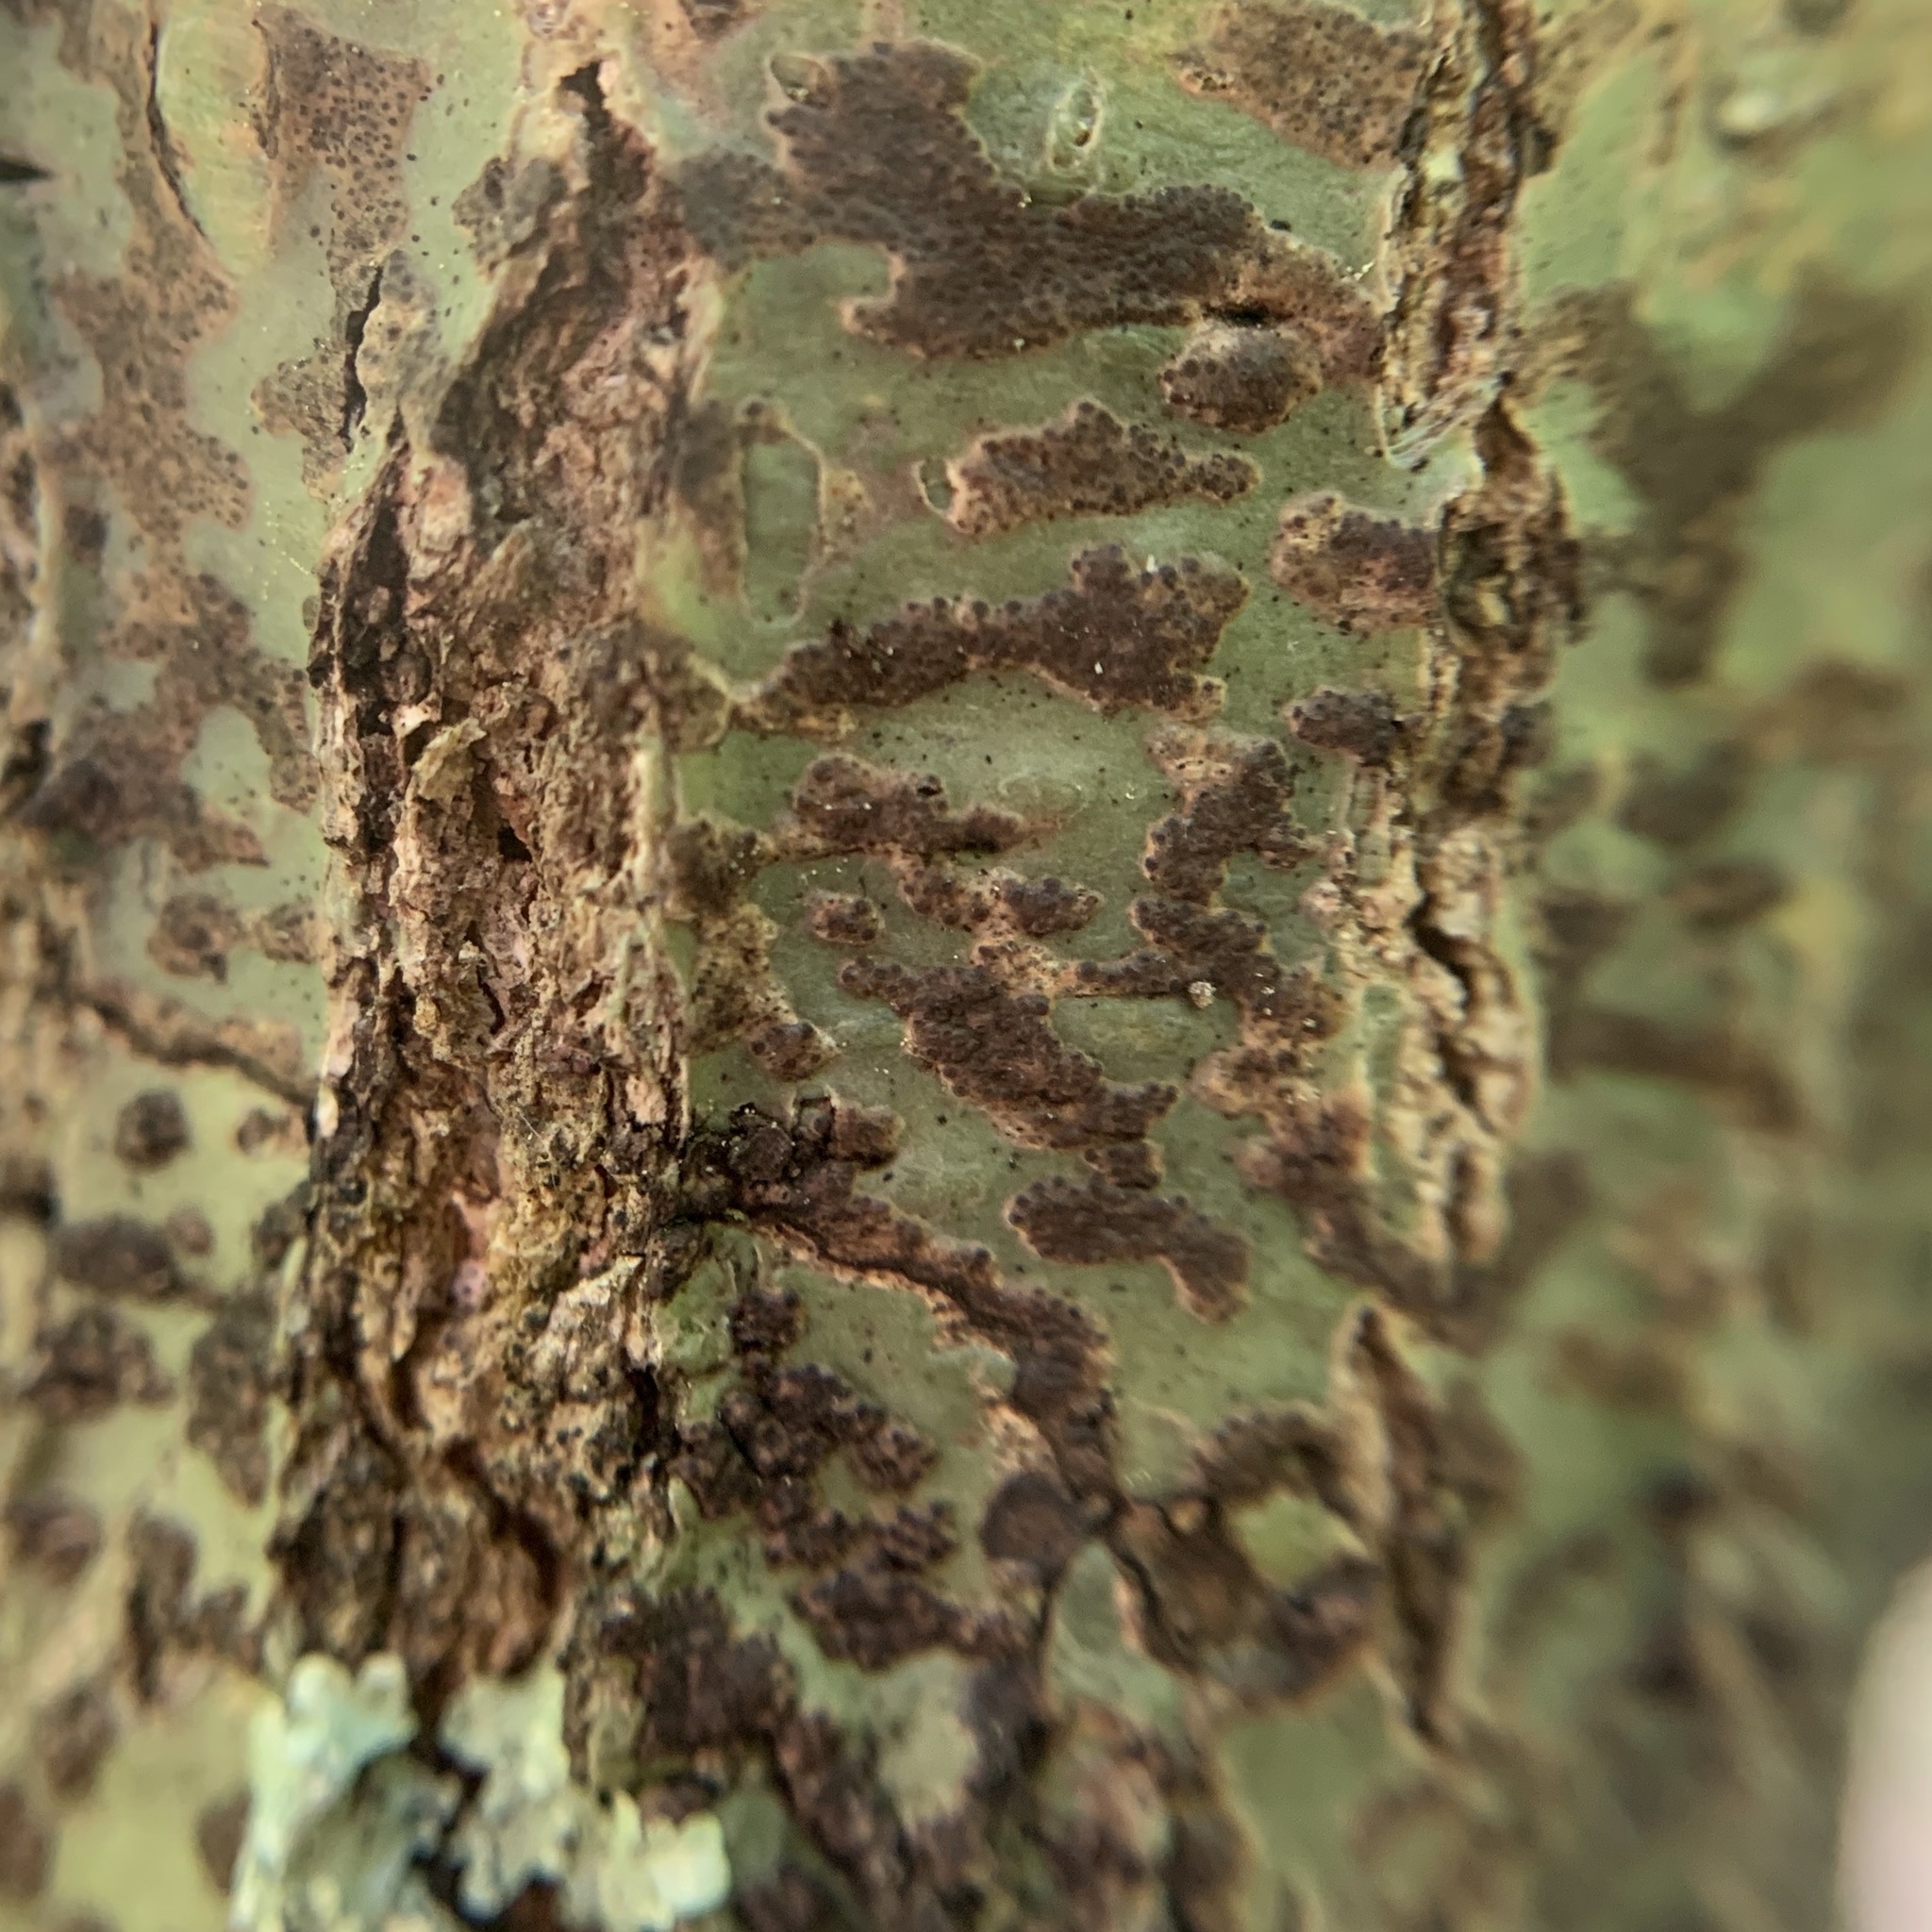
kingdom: Fungi
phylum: Ascomycota
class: Dothideomycetes
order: Trypetheliales
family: Trypetheliaceae
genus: Viridothelium
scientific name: Viridothelium virens
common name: Speckled blister lichen
